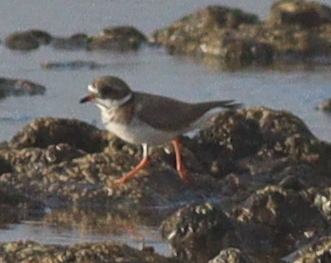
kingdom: Animalia
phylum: Chordata
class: Aves
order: Charadriiformes
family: Charadriidae
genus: Charadrius
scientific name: Charadrius hiaticula
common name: Common ringed plover
